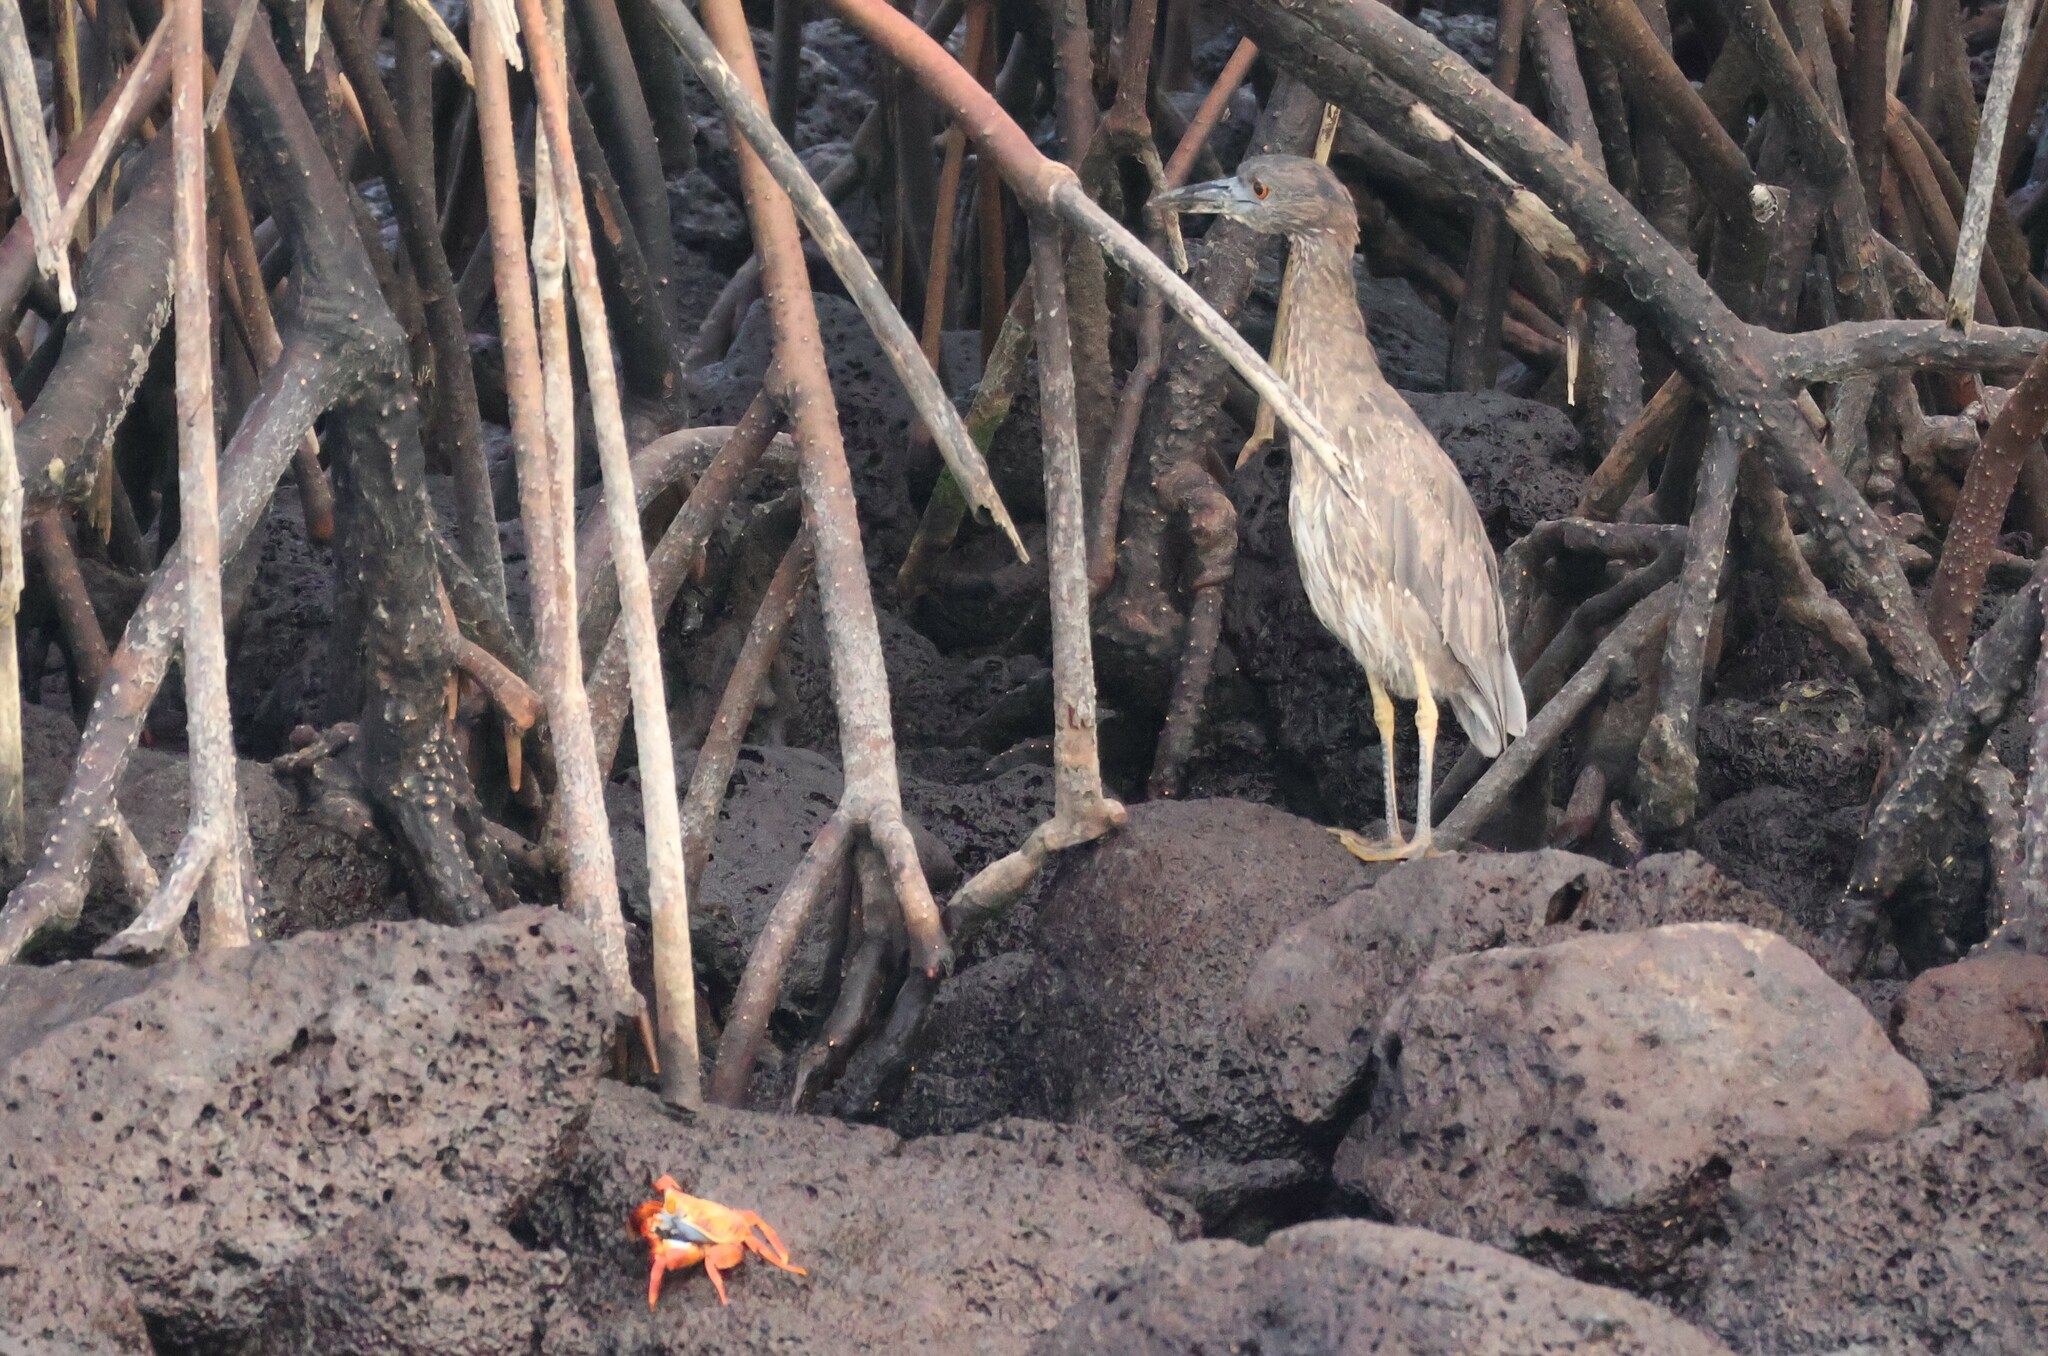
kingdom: Animalia
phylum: Chordata
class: Aves
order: Pelecaniformes
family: Ardeidae
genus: Nyctanassa
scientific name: Nyctanassa violacea
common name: Yellow-crowned night heron
